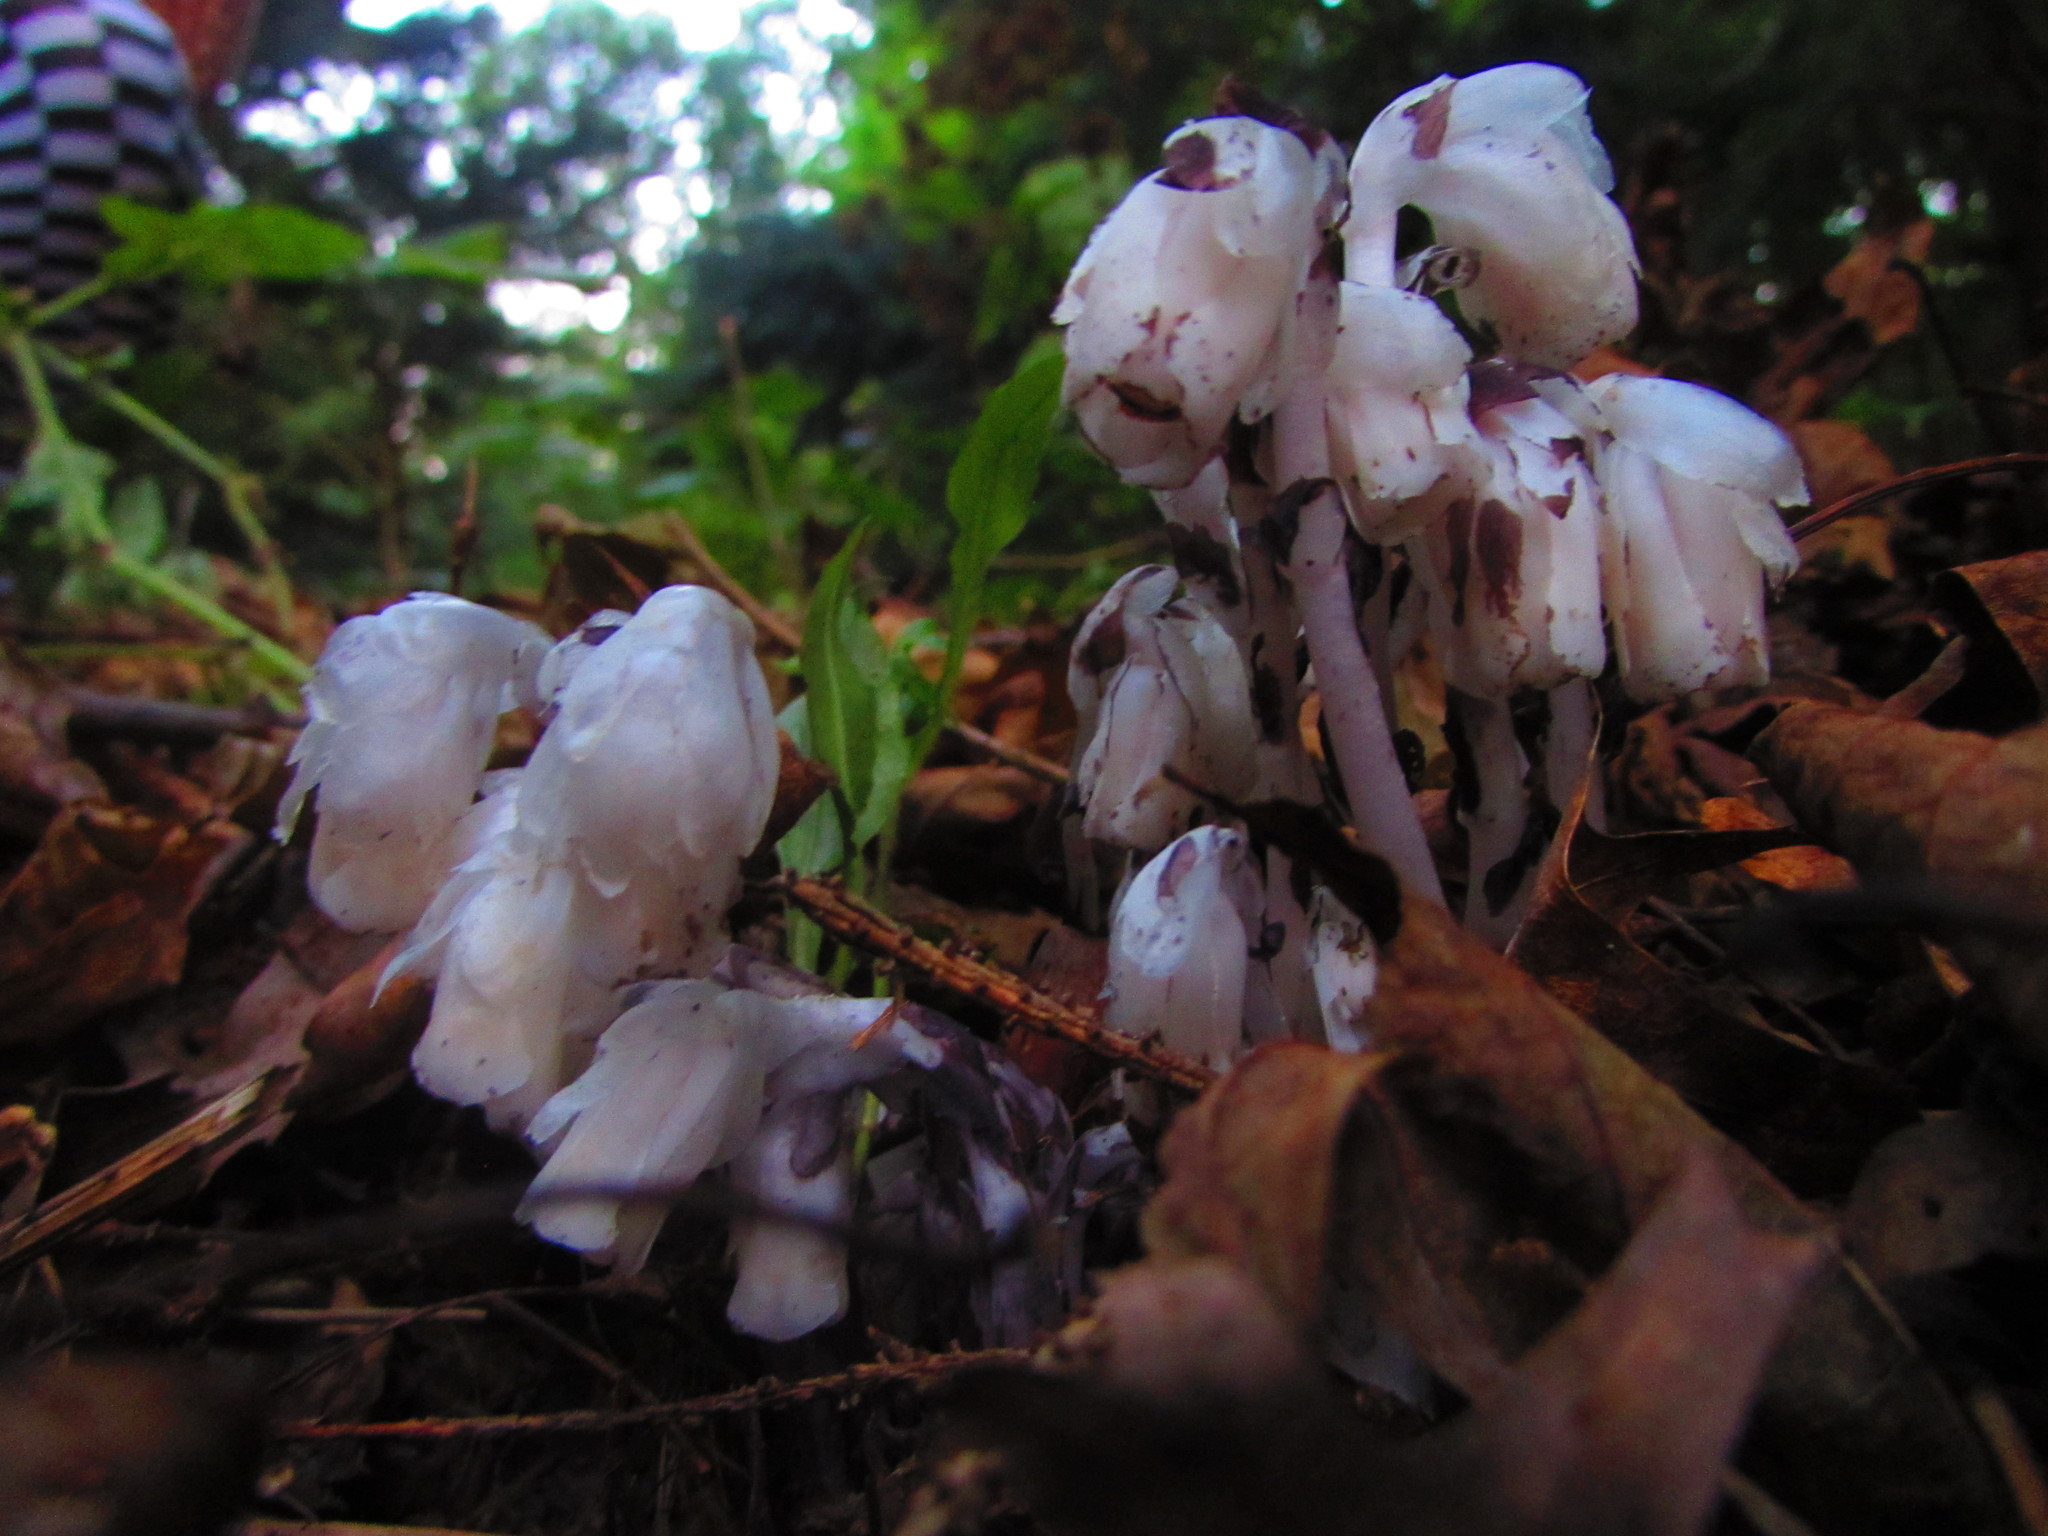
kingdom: Plantae
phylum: Tracheophyta
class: Magnoliopsida
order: Ericales
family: Ericaceae
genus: Monotropa
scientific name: Monotropa uniflora
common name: Convulsion root
